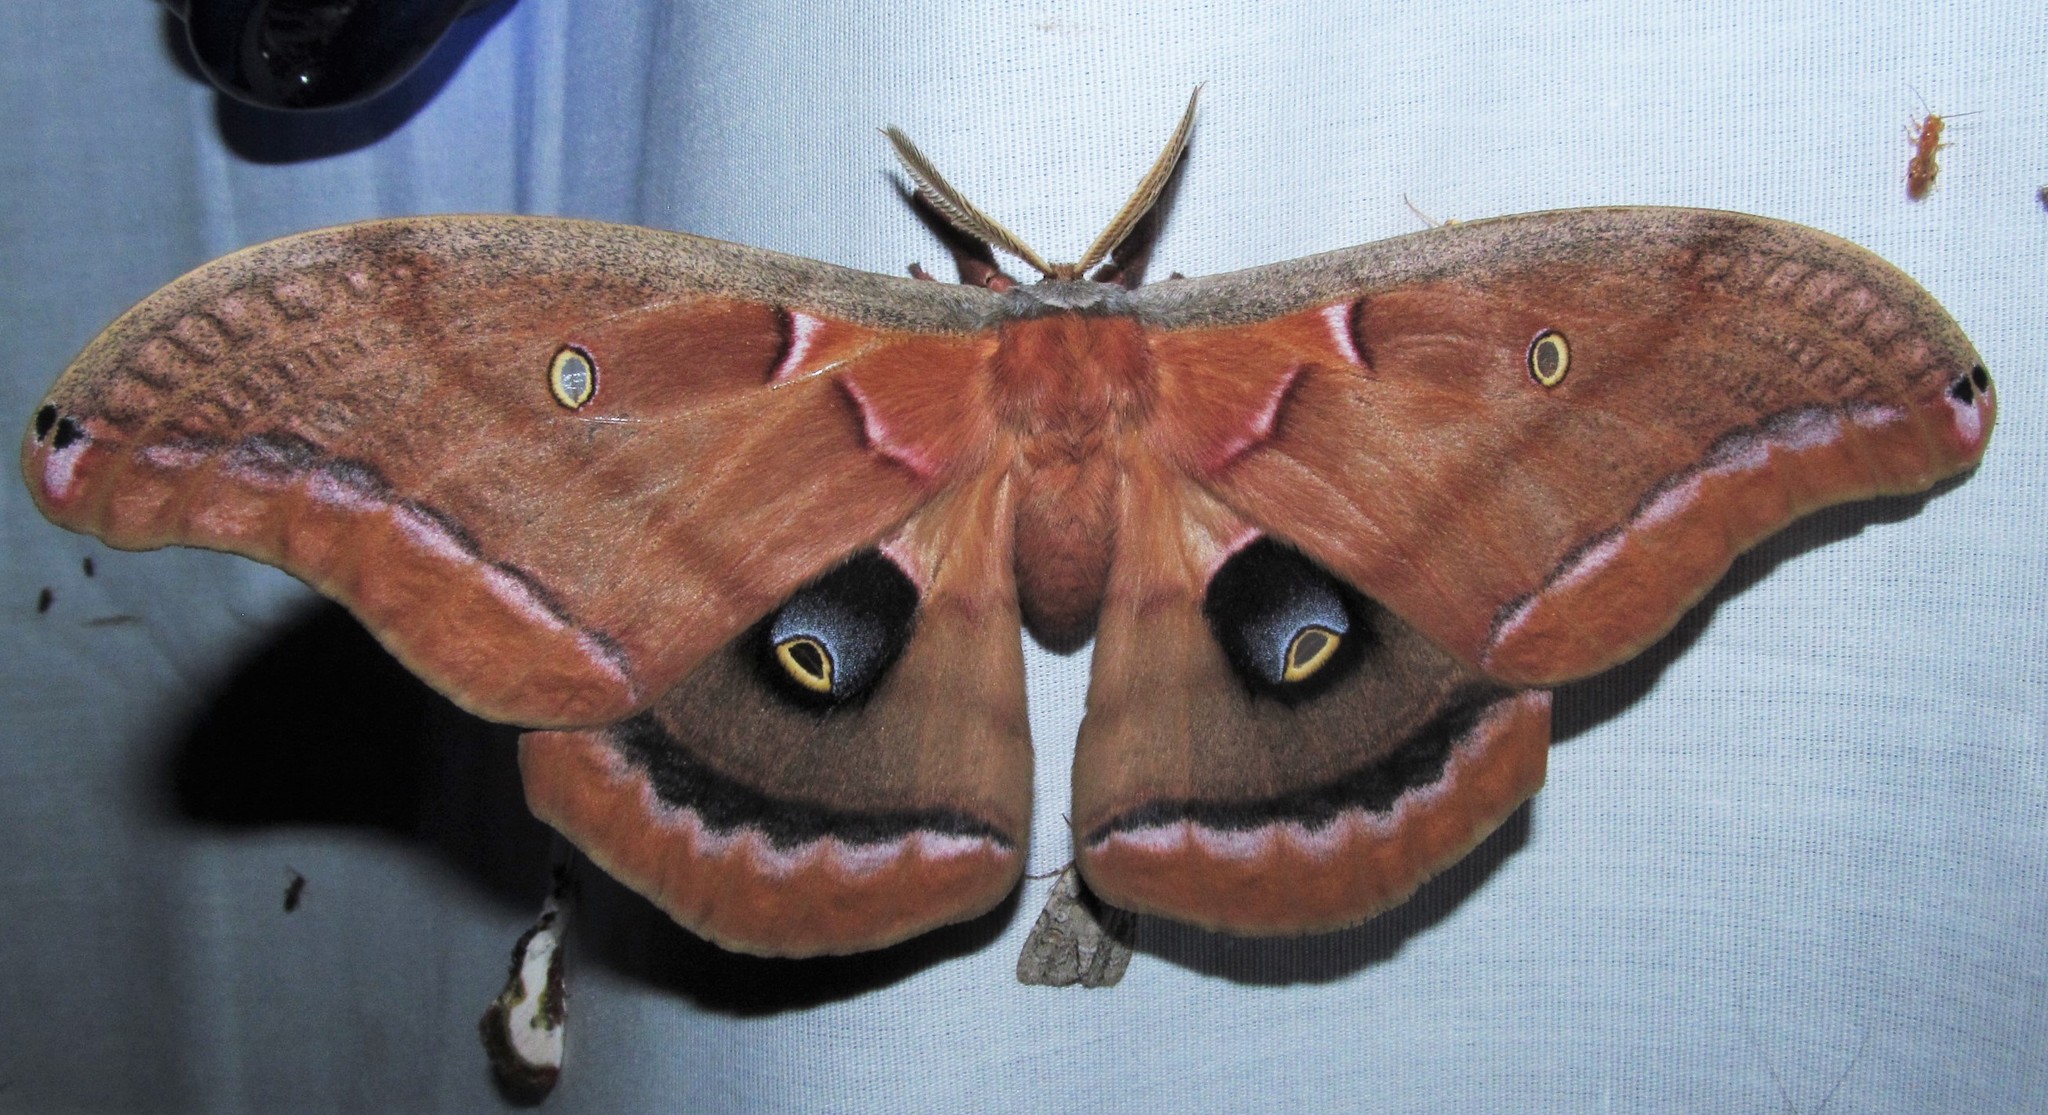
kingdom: Animalia
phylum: Arthropoda
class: Insecta
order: Lepidoptera
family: Saturniidae
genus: Antheraea
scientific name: Antheraea polyphemus
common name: Polyphemus moth
